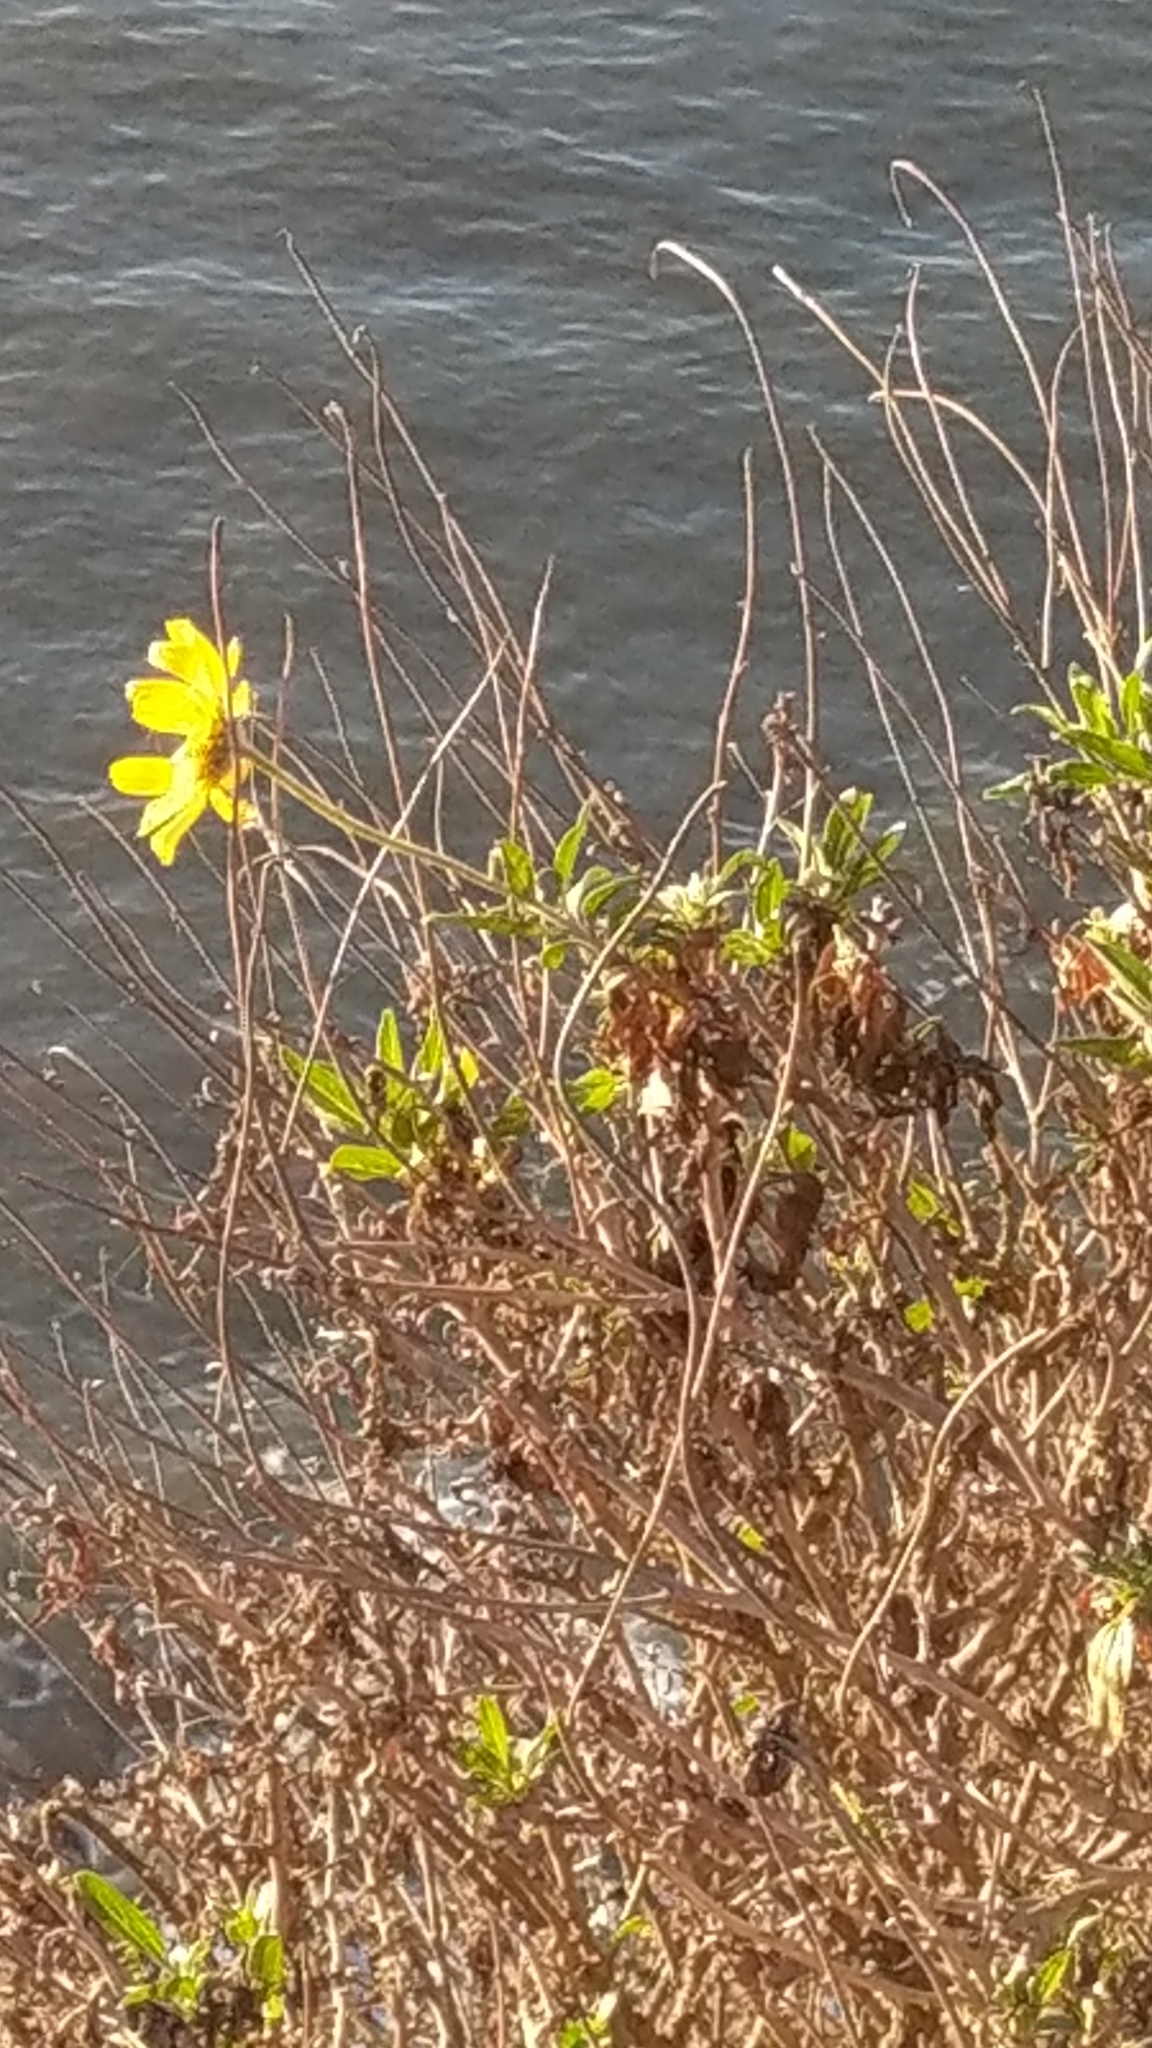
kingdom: Plantae
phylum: Tracheophyta
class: Magnoliopsida
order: Asterales
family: Asteraceae
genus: Encelia
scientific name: Encelia californica
